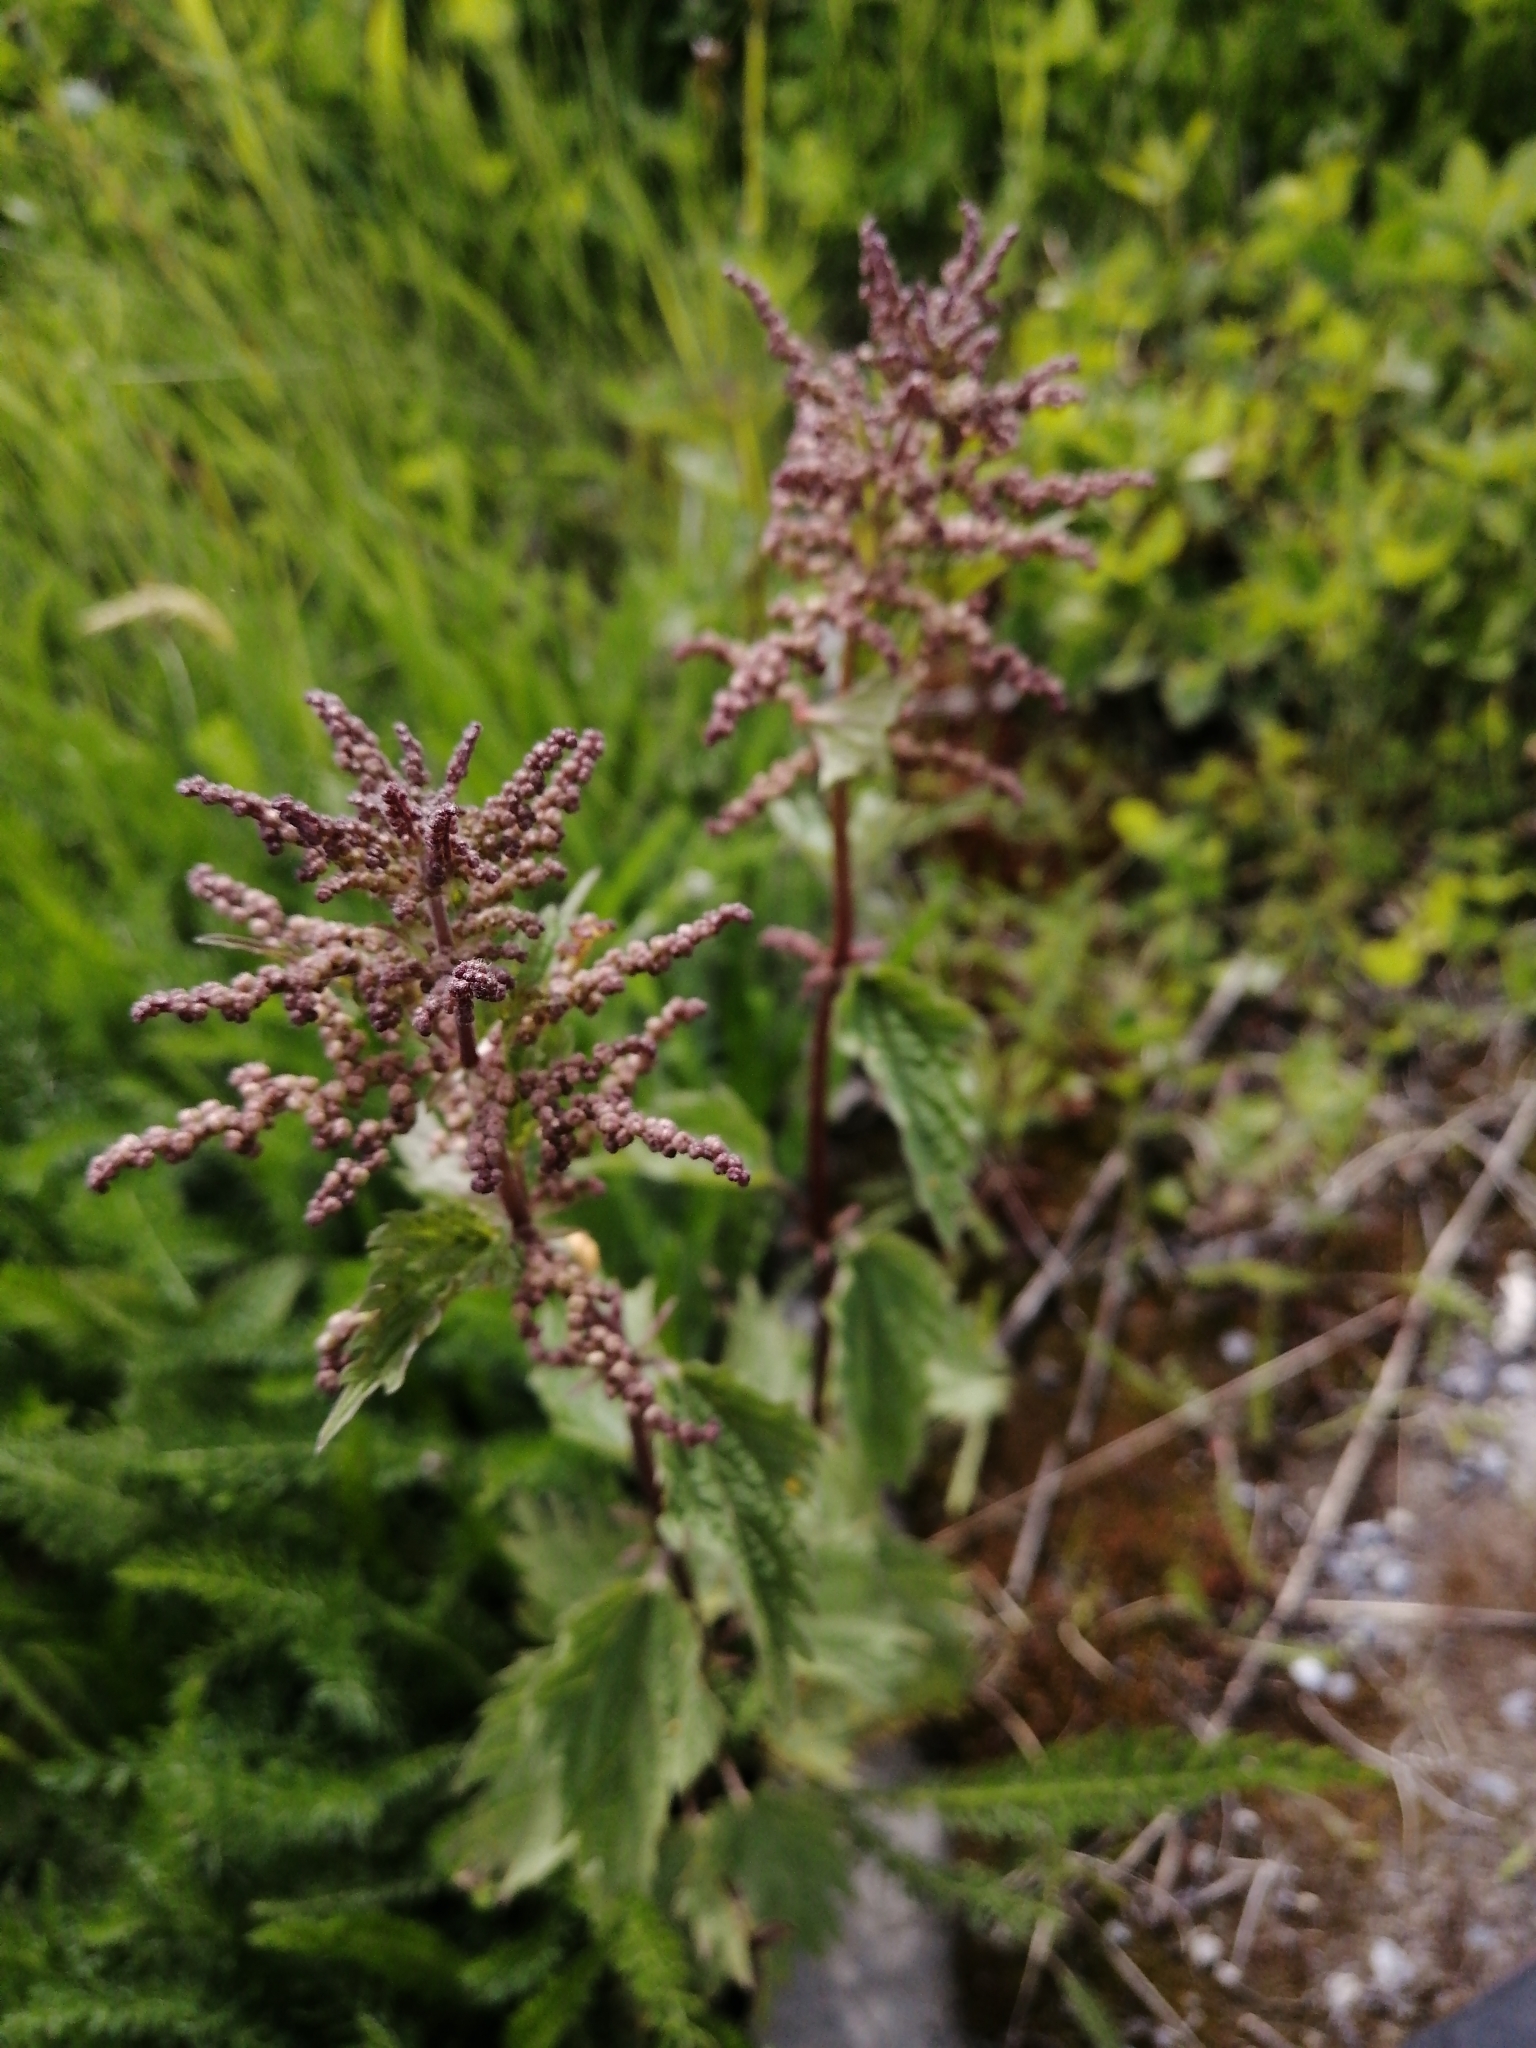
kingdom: Plantae
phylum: Tracheophyta
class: Magnoliopsida
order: Rosales
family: Urticaceae
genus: Urtica
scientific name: Urtica dioica
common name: Common nettle
